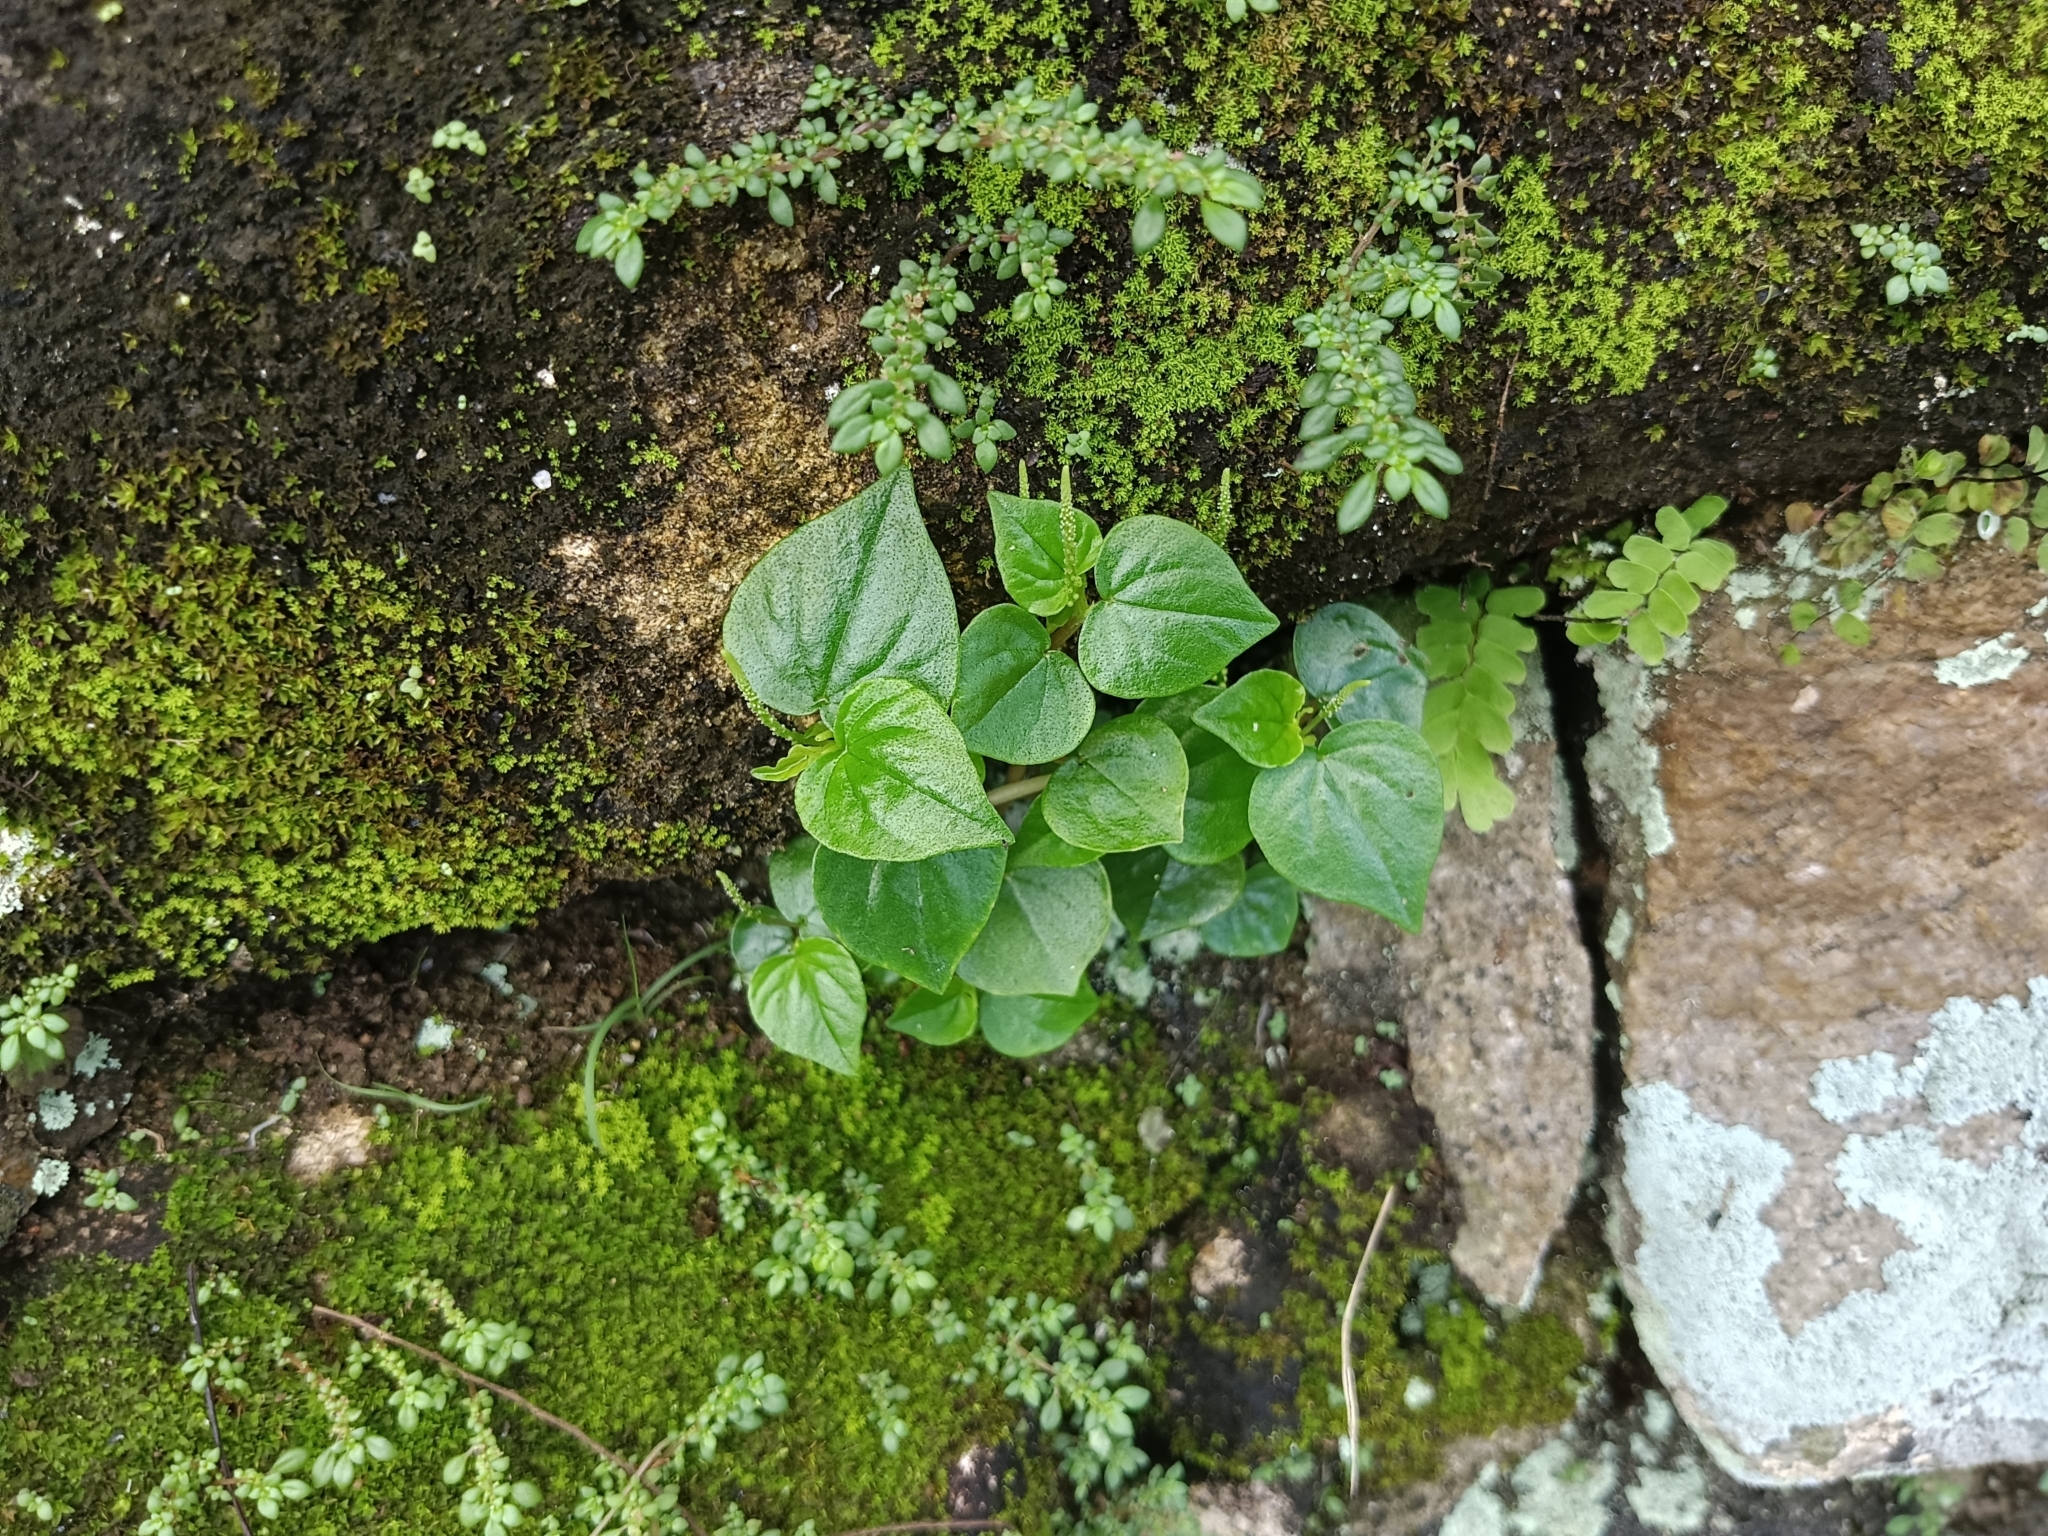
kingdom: Plantae
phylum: Tracheophyta
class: Magnoliopsida
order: Piperales
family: Piperaceae
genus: Peperomia
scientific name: Peperomia pellucida
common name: Man to man
